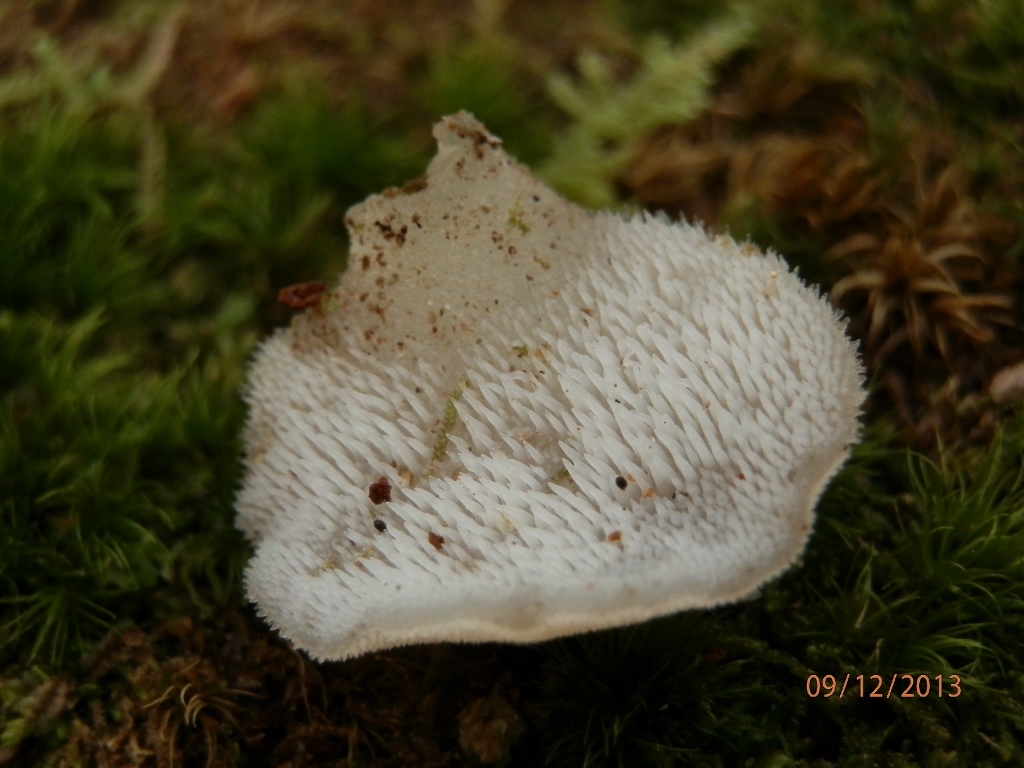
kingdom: Fungi
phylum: Basidiomycota
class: Agaricomycetes
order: Auriculariales
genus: Pseudohydnum
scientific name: Pseudohydnum gelatinosum
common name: Jelly tongue
